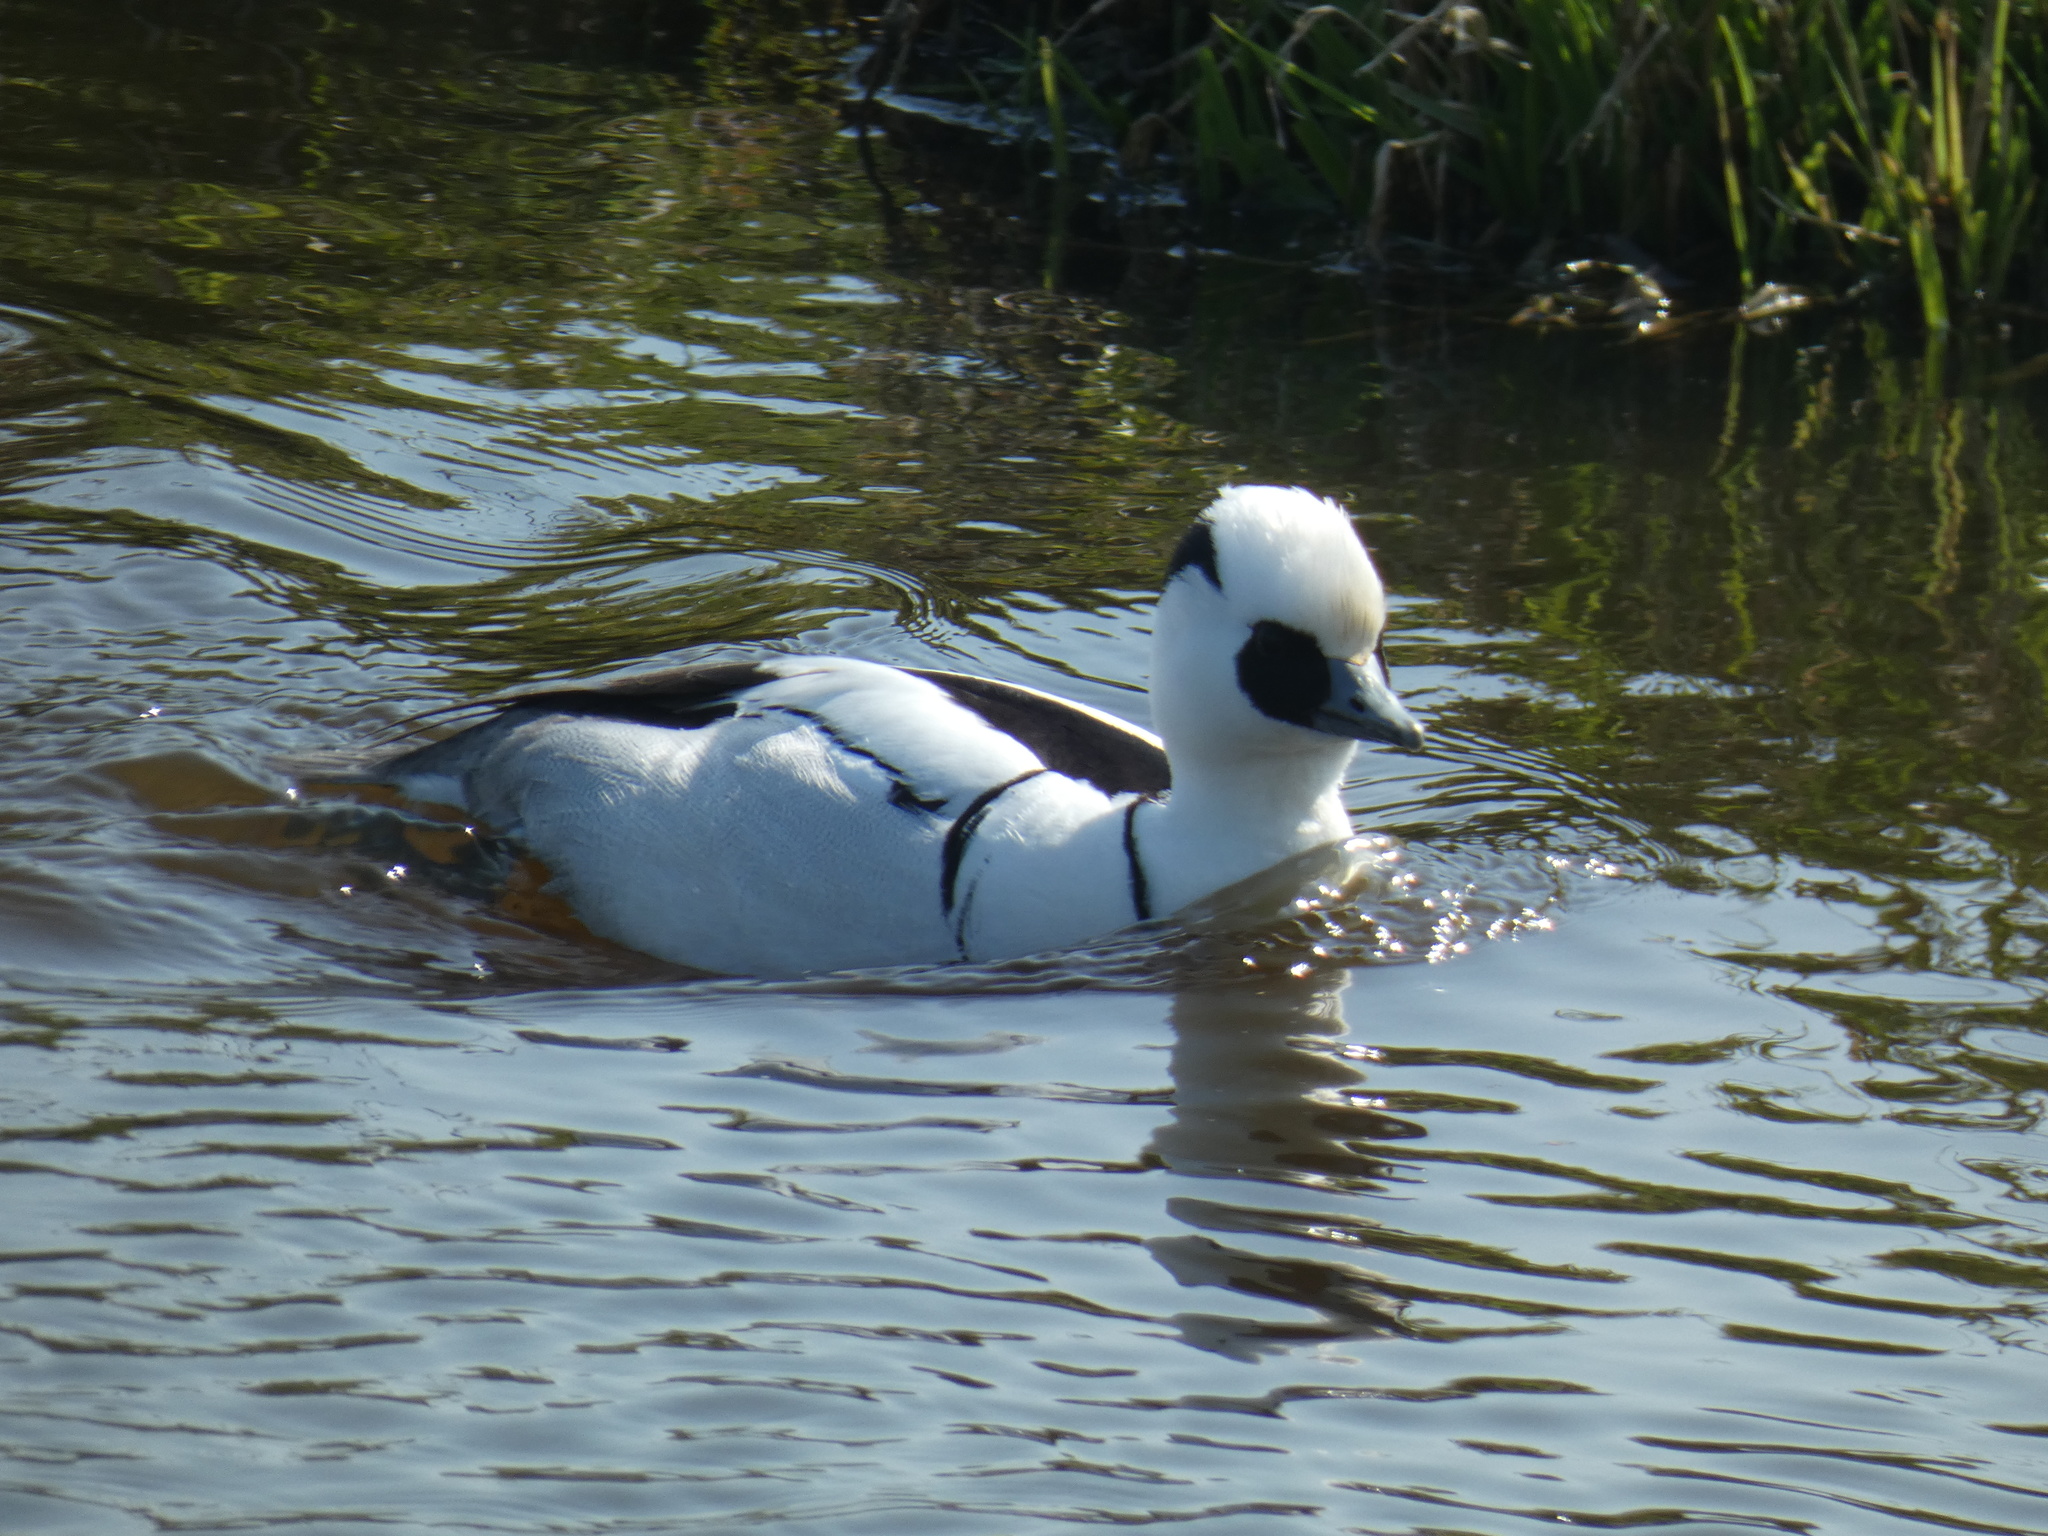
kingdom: Animalia
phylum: Chordata
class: Aves
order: Anseriformes
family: Anatidae
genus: Mergellus
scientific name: Mergellus albellus
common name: Smew
